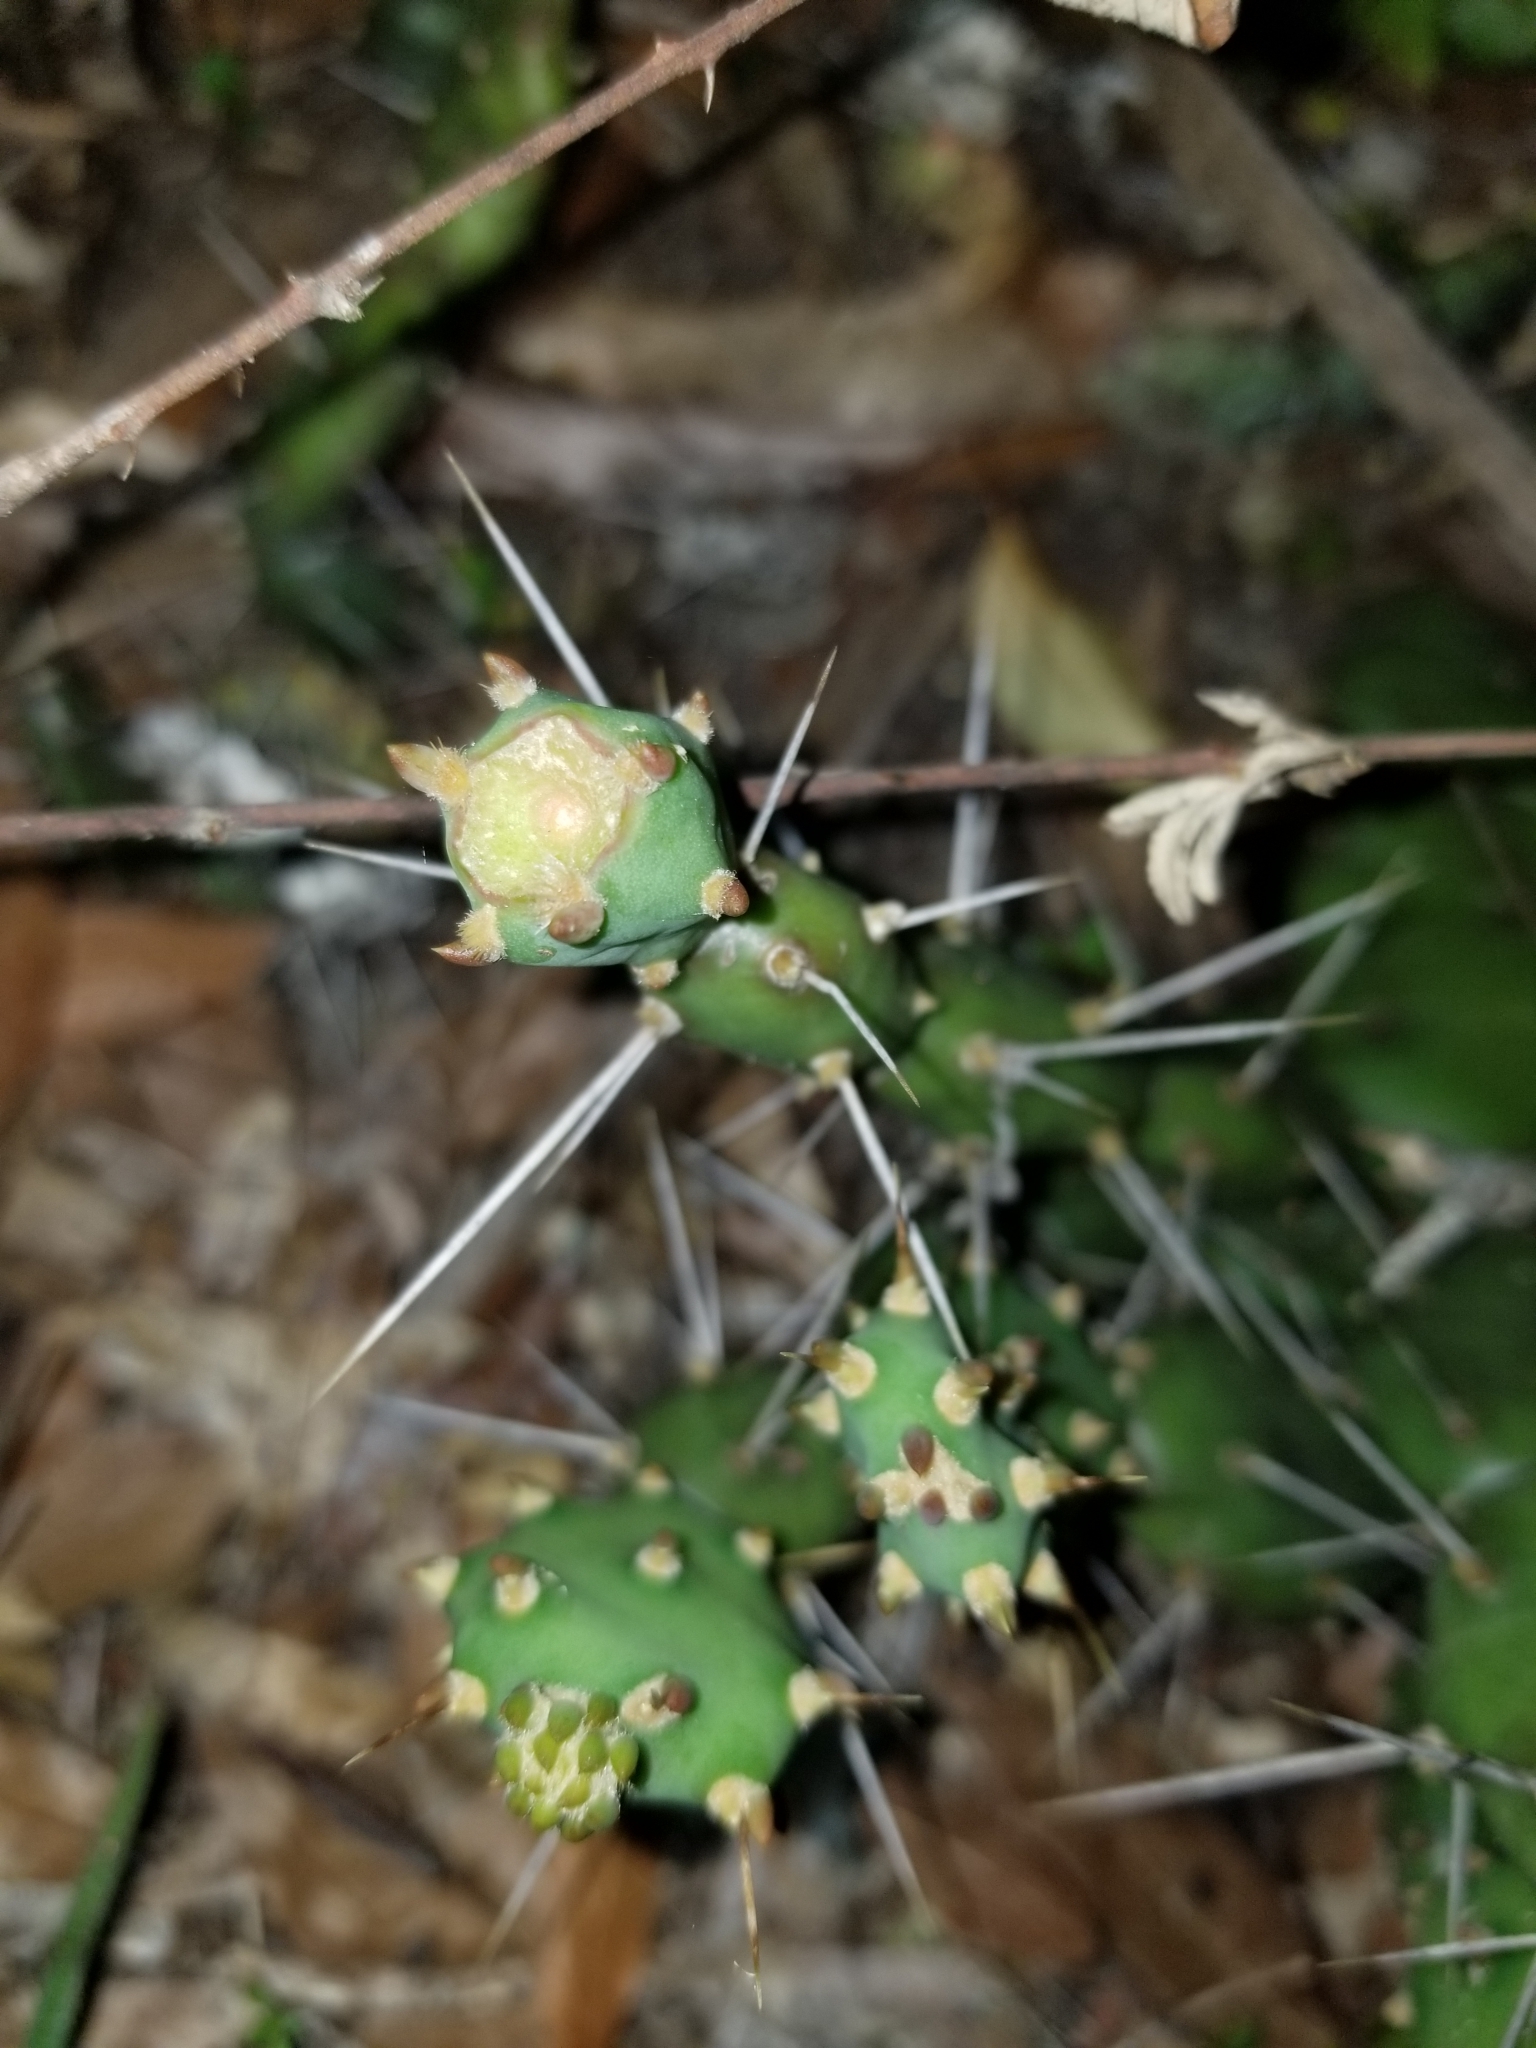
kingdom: Plantae
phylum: Tracheophyta
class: Magnoliopsida
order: Caryophyllales
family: Cactaceae
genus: Opuntia
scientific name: Opuntia drummondii
